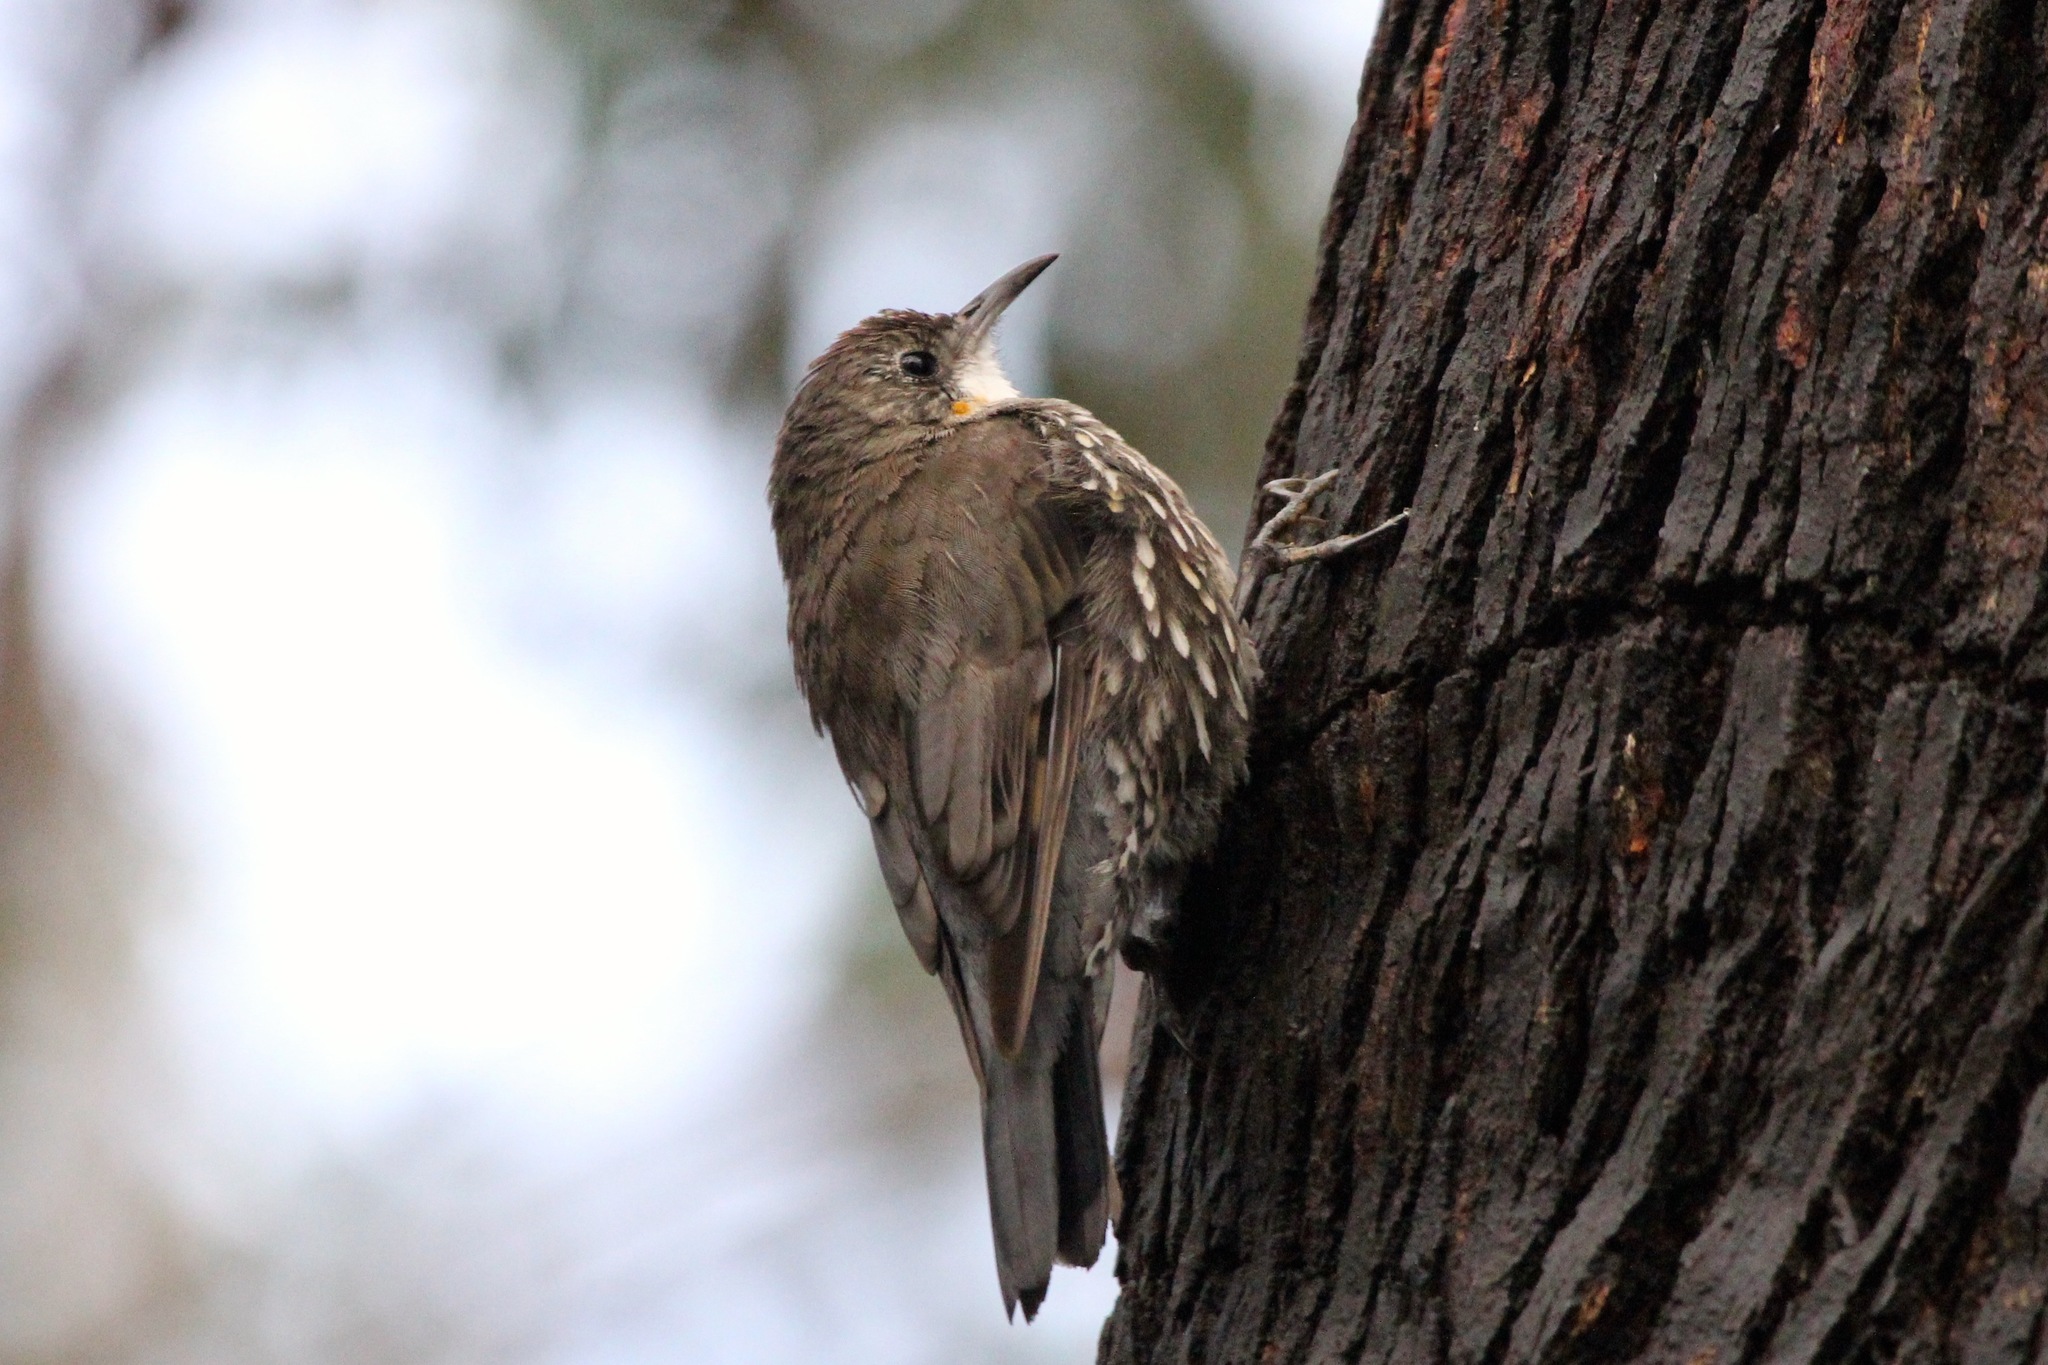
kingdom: Animalia
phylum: Chordata
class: Aves
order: Passeriformes
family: Climacteridae
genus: Cormobates
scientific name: Cormobates leucophaea
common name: White-throated treecreeper
